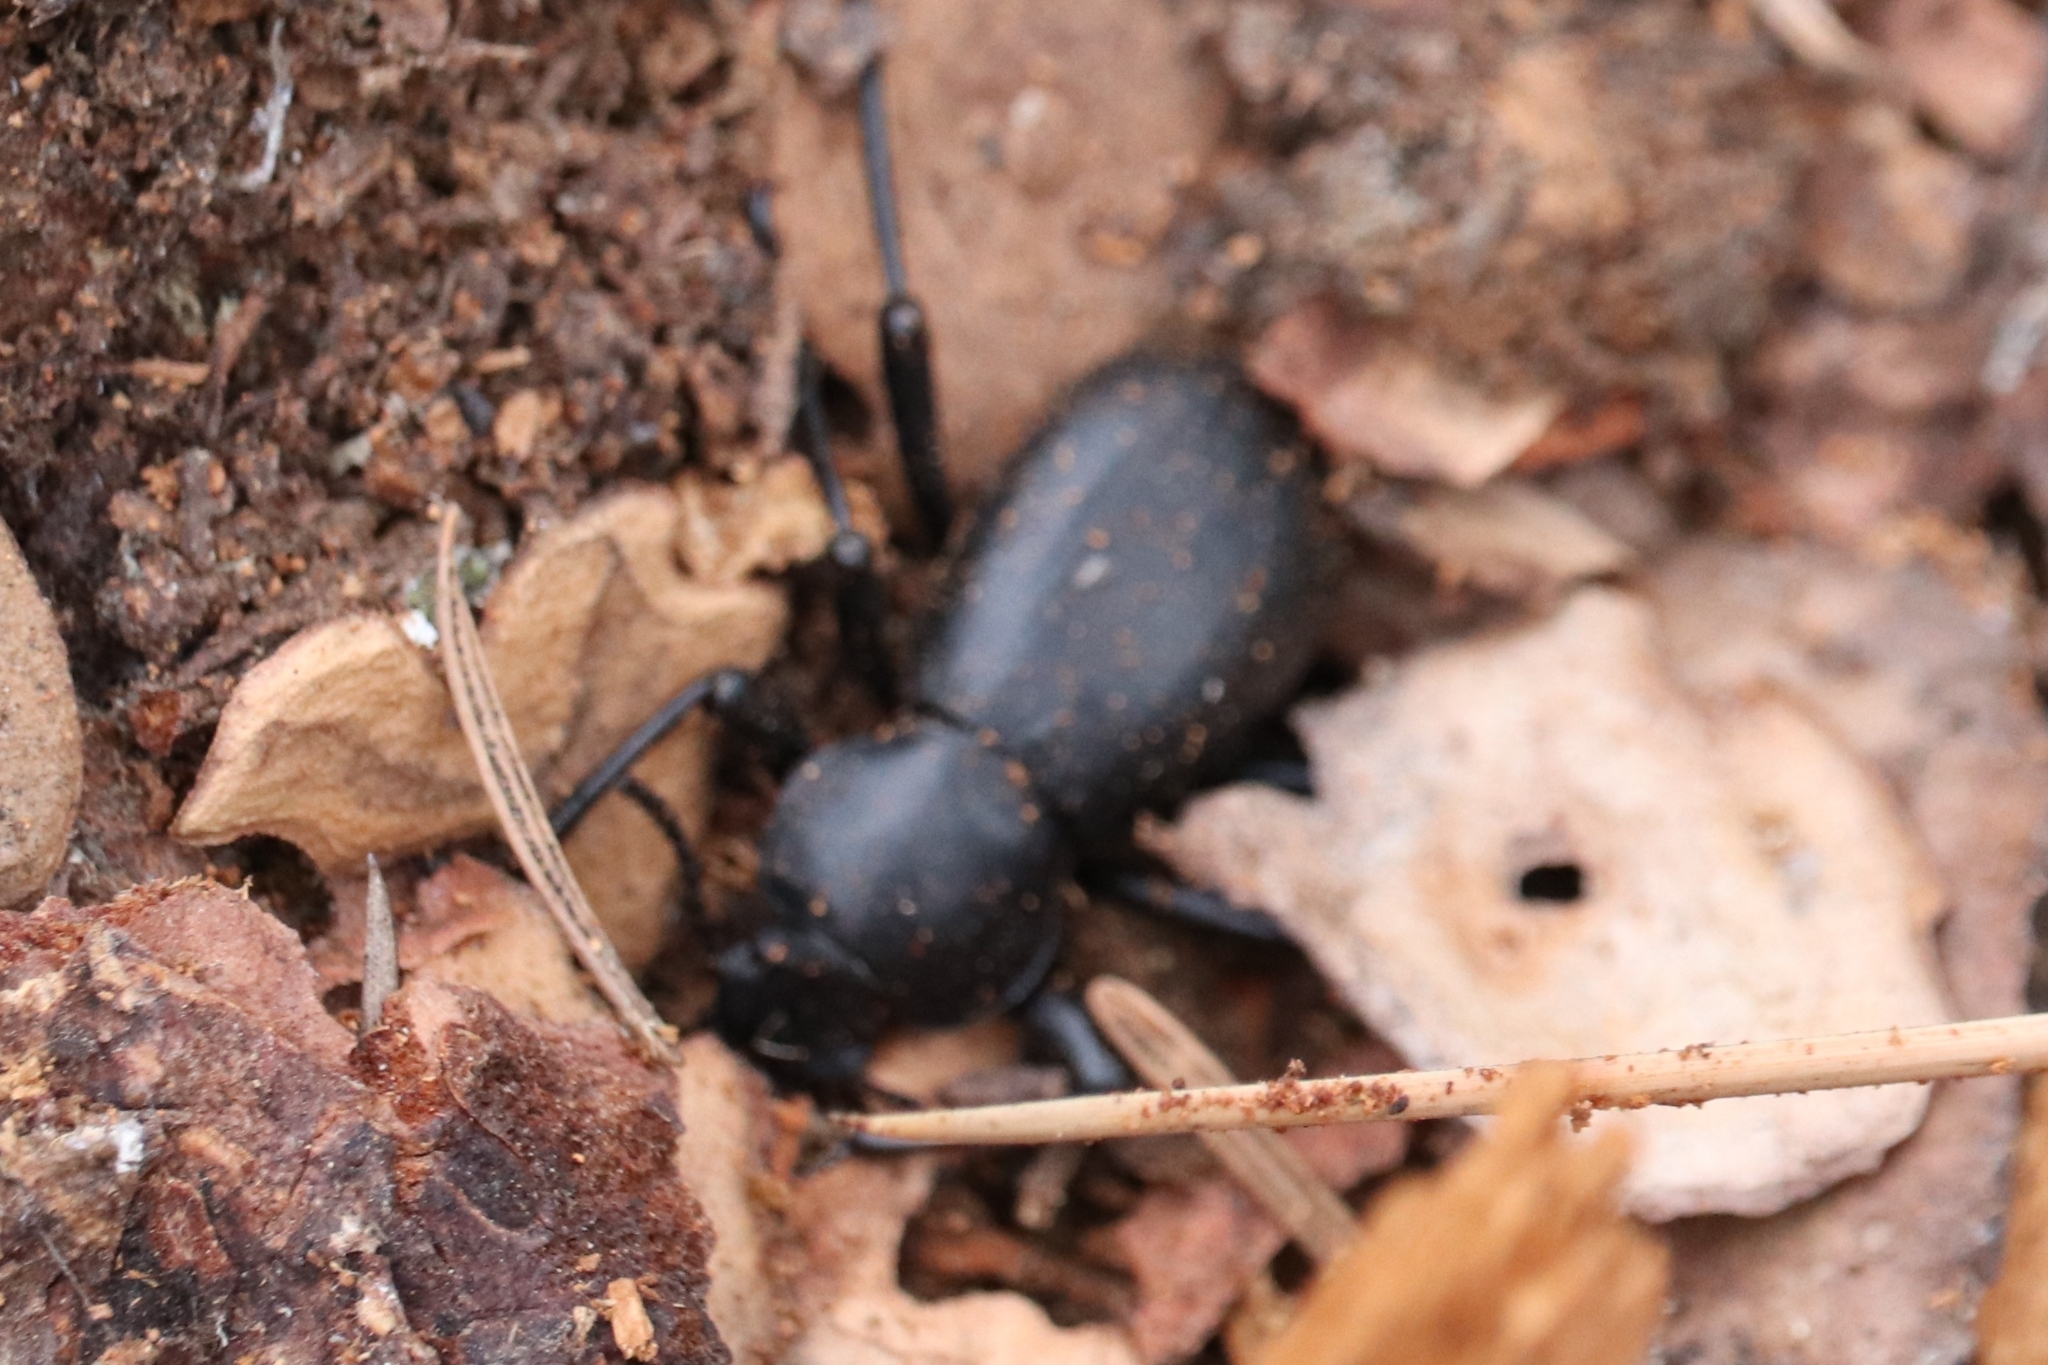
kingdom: Animalia
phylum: Arthropoda
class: Insecta
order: Coleoptera
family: Tenebrionidae
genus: Coelocnemis
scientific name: Coelocnemis dilaticollis
